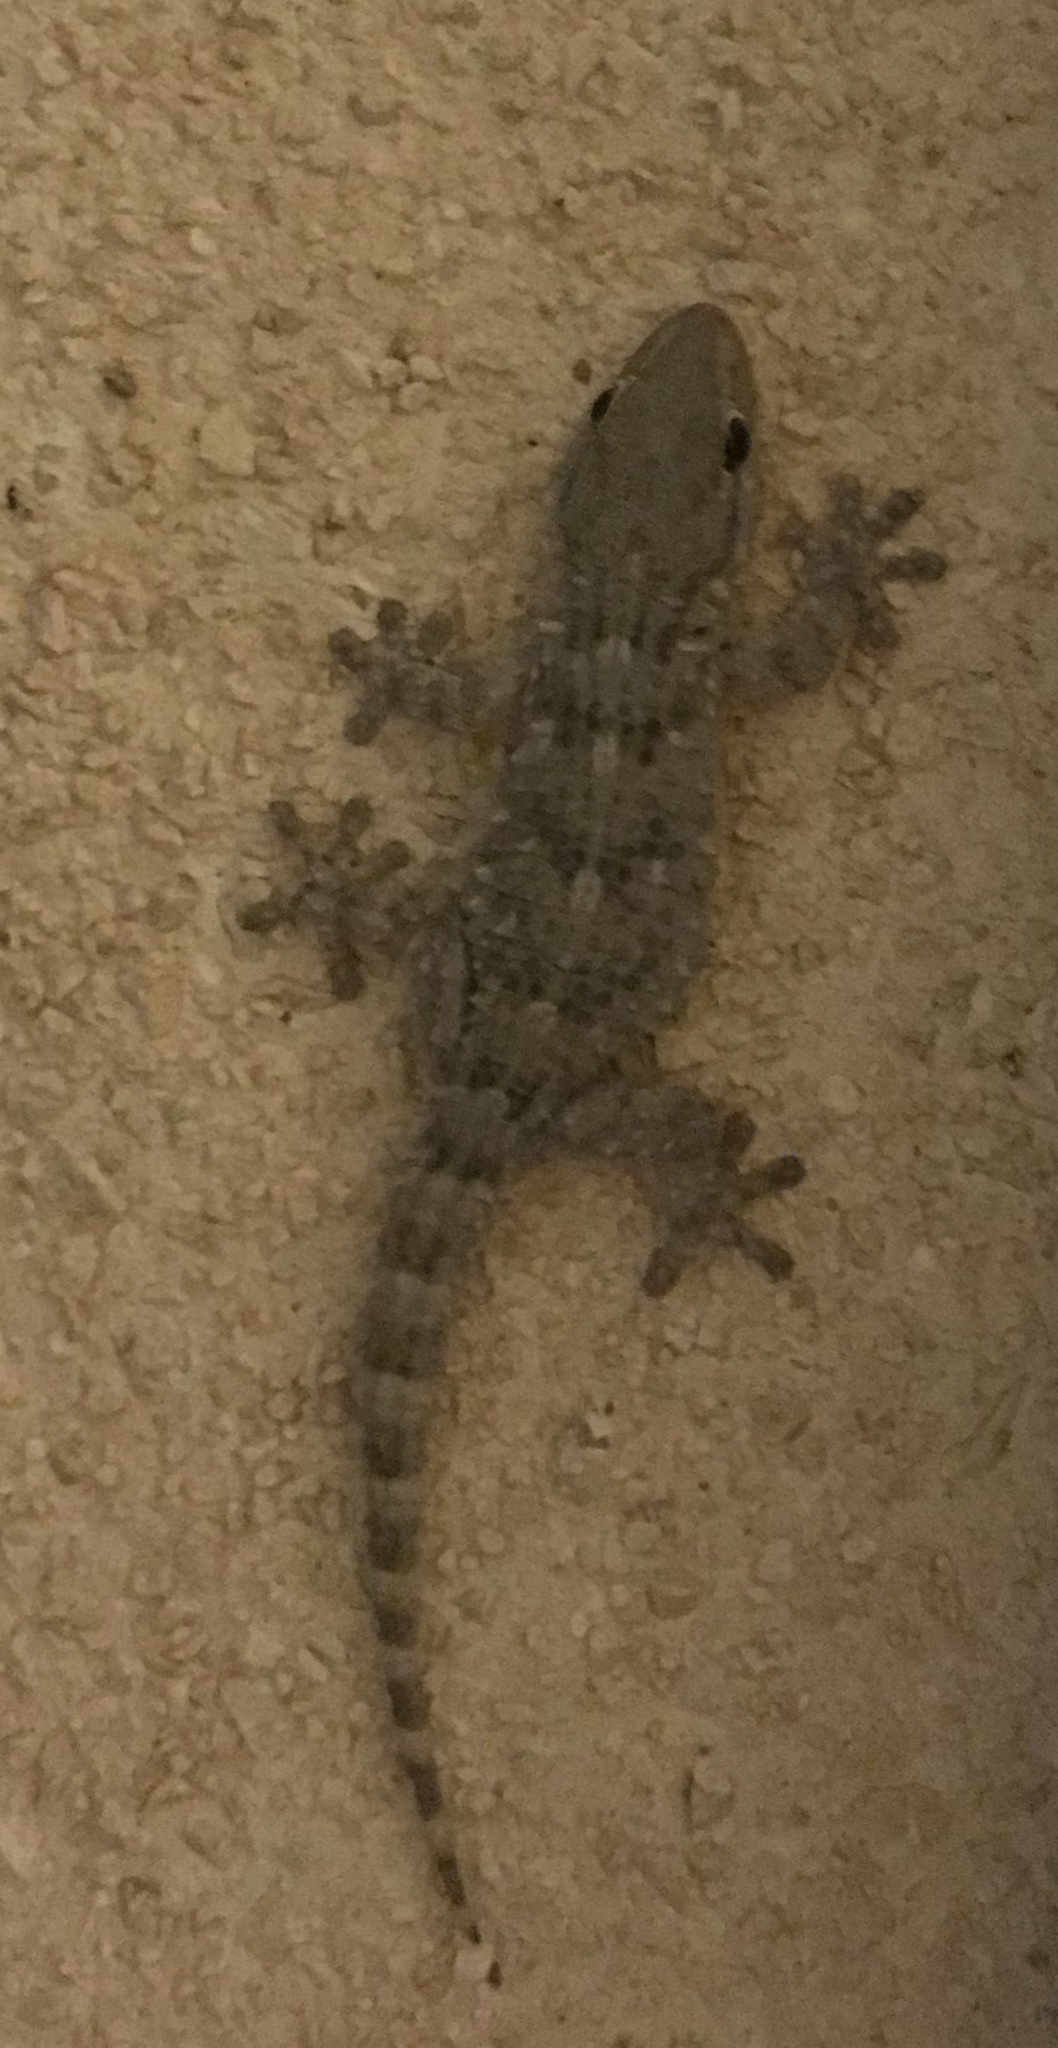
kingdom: Animalia
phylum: Chordata
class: Squamata
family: Phyllodactylidae
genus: Tarentola
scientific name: Tarentola mauritanica
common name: Moorish gecko
